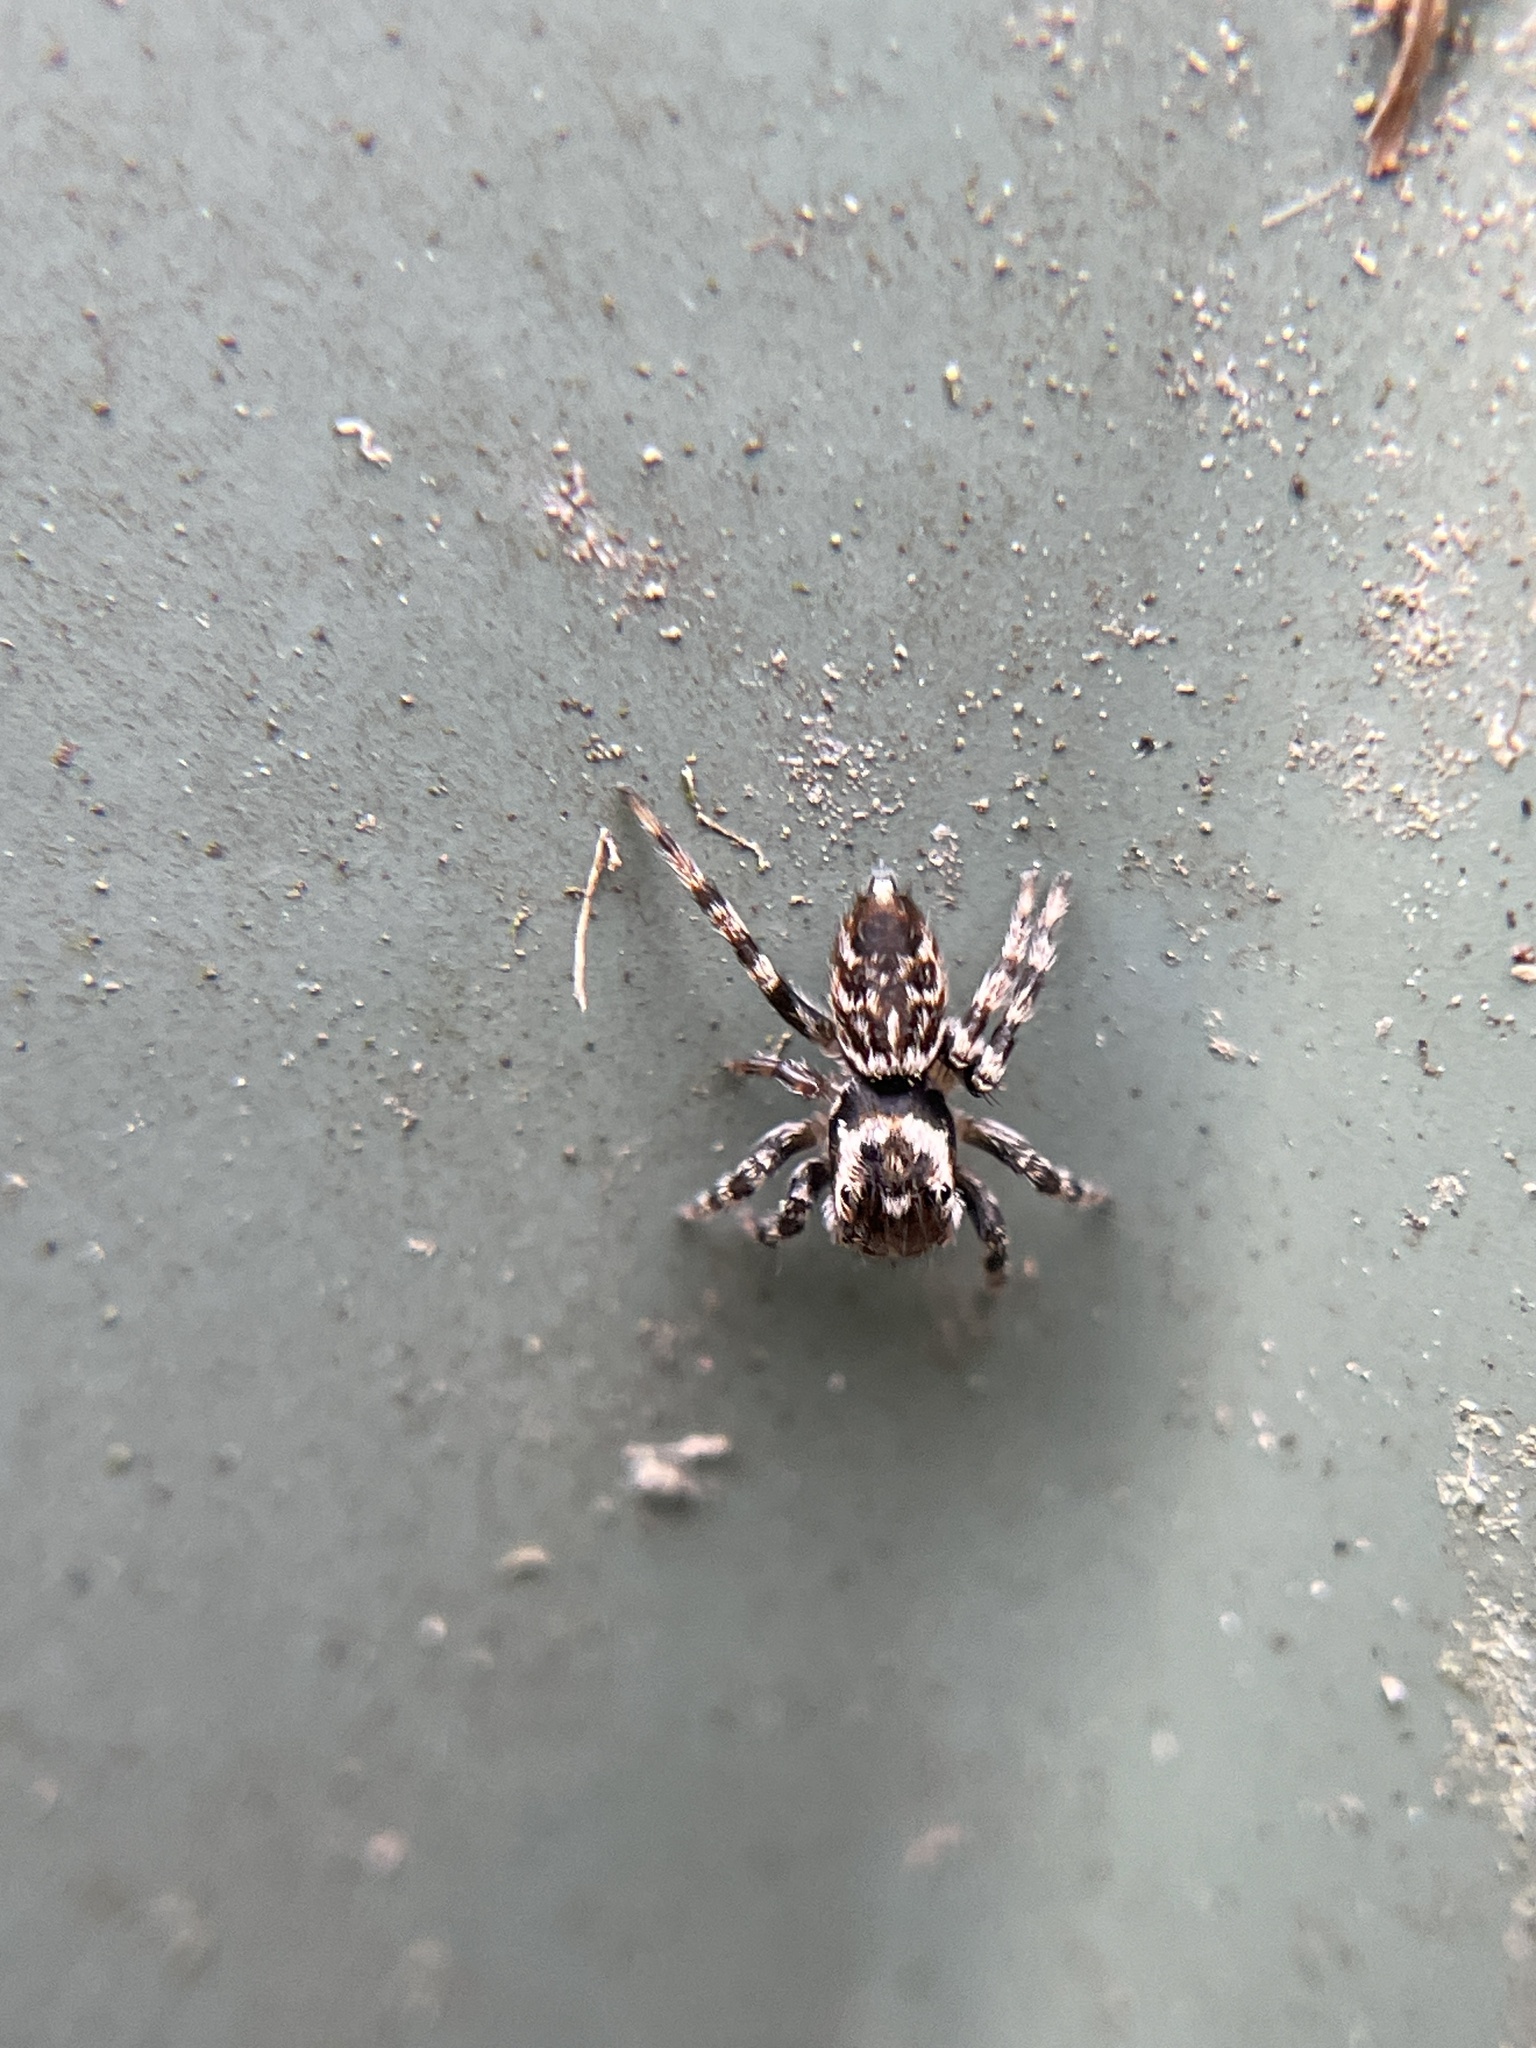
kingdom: Animalia
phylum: Arthropoda
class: Arachnida
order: Araneae
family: Salticidae
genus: Maratus
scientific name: Maratus griseus
